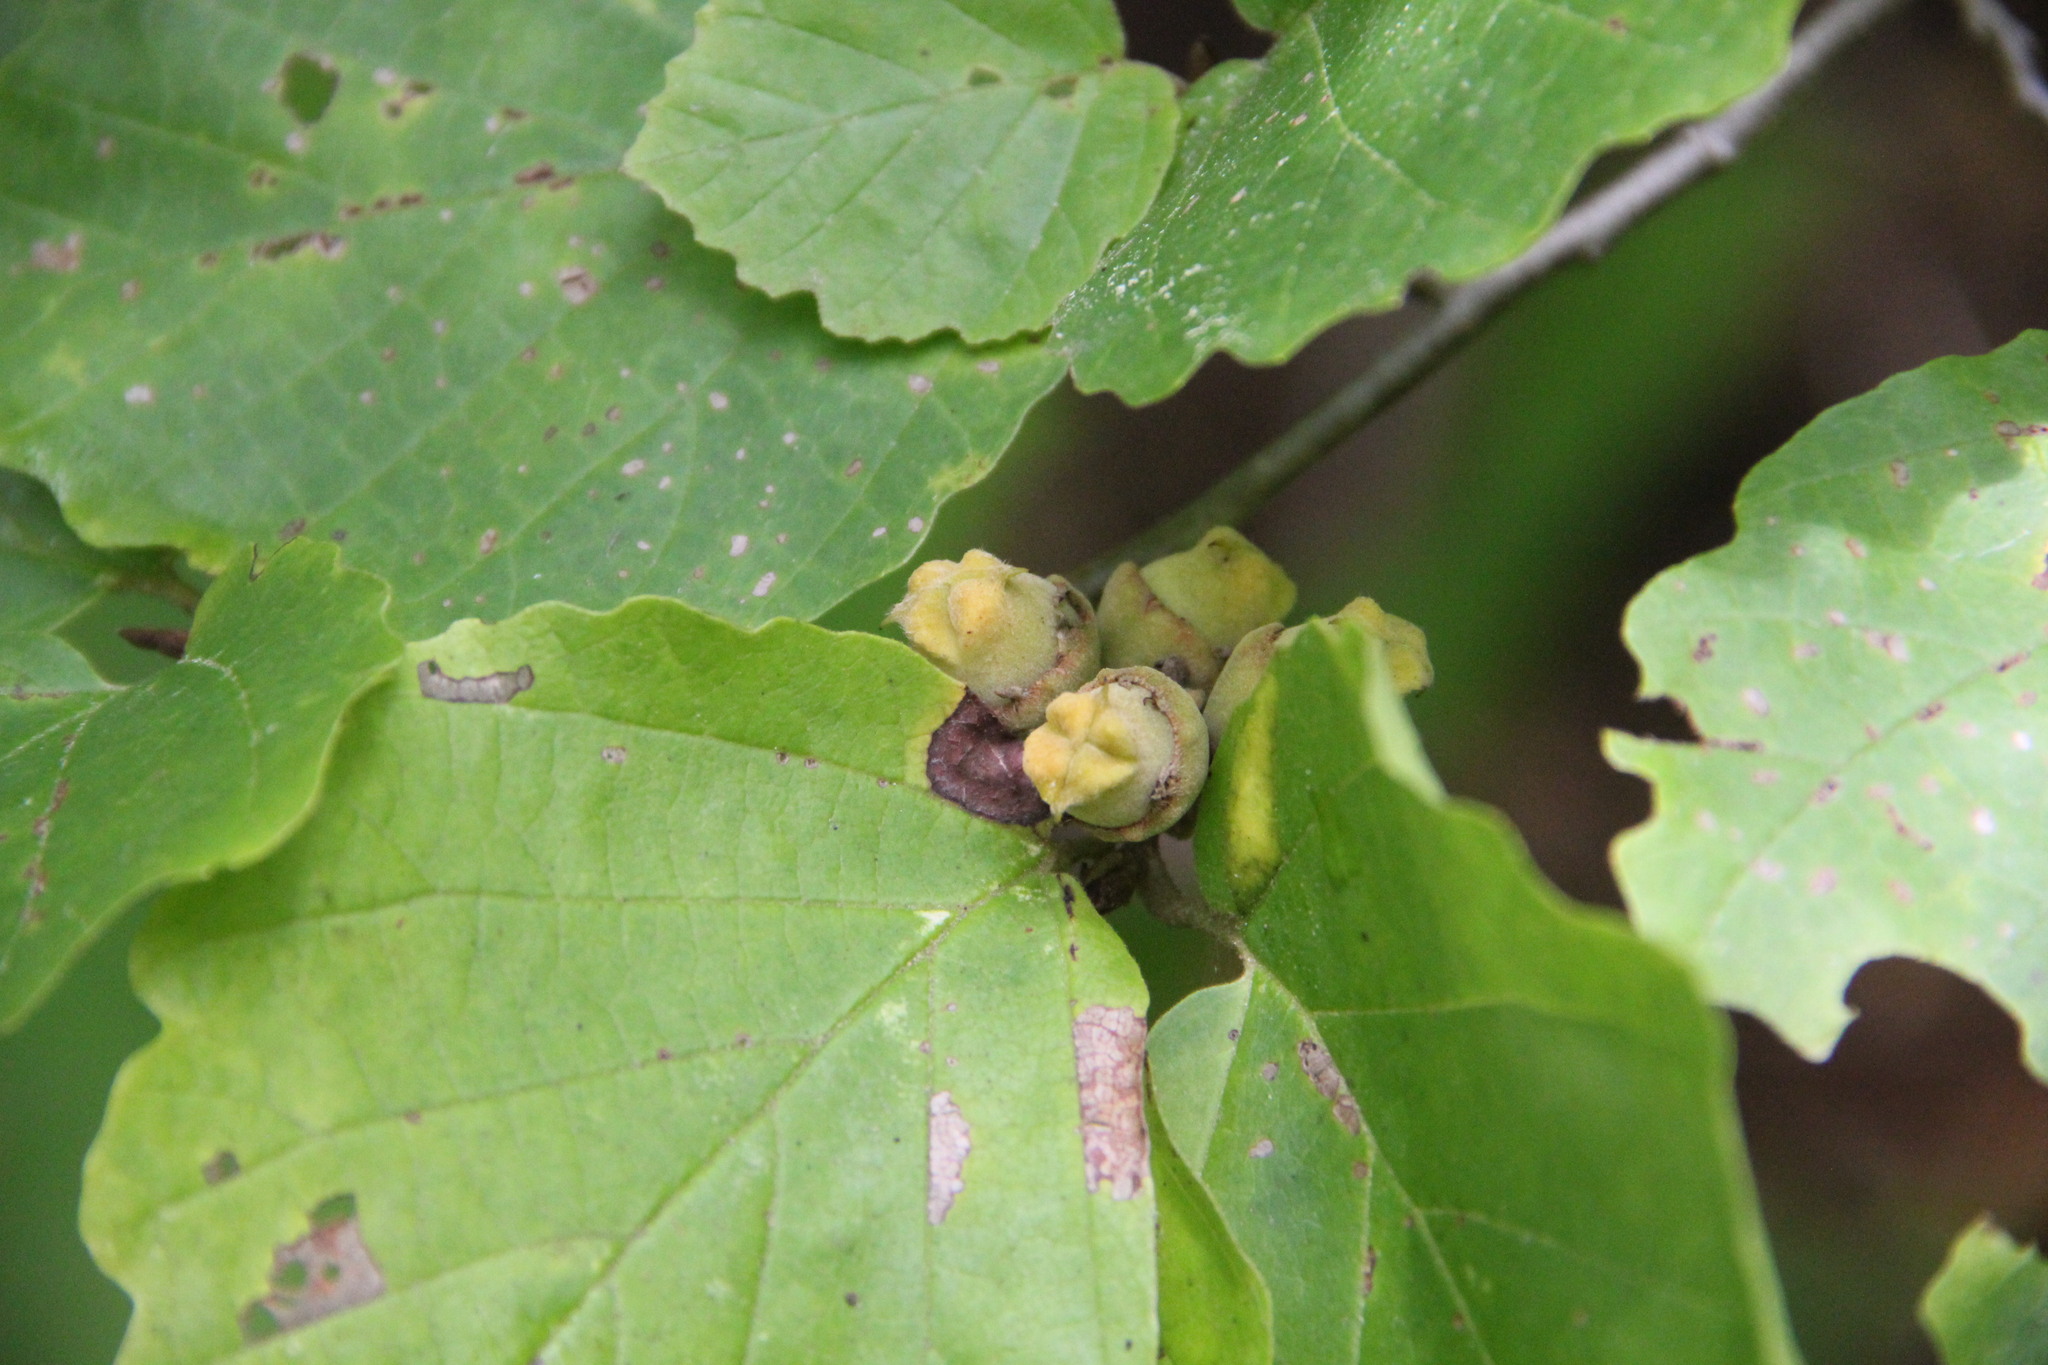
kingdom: Plantae
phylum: Tracheophyta
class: Magnoliopsida
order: Saxifragales
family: Hamamelidaceae
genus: Hamamelis
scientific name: Hamamelis virginiana
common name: Witch-hazel
